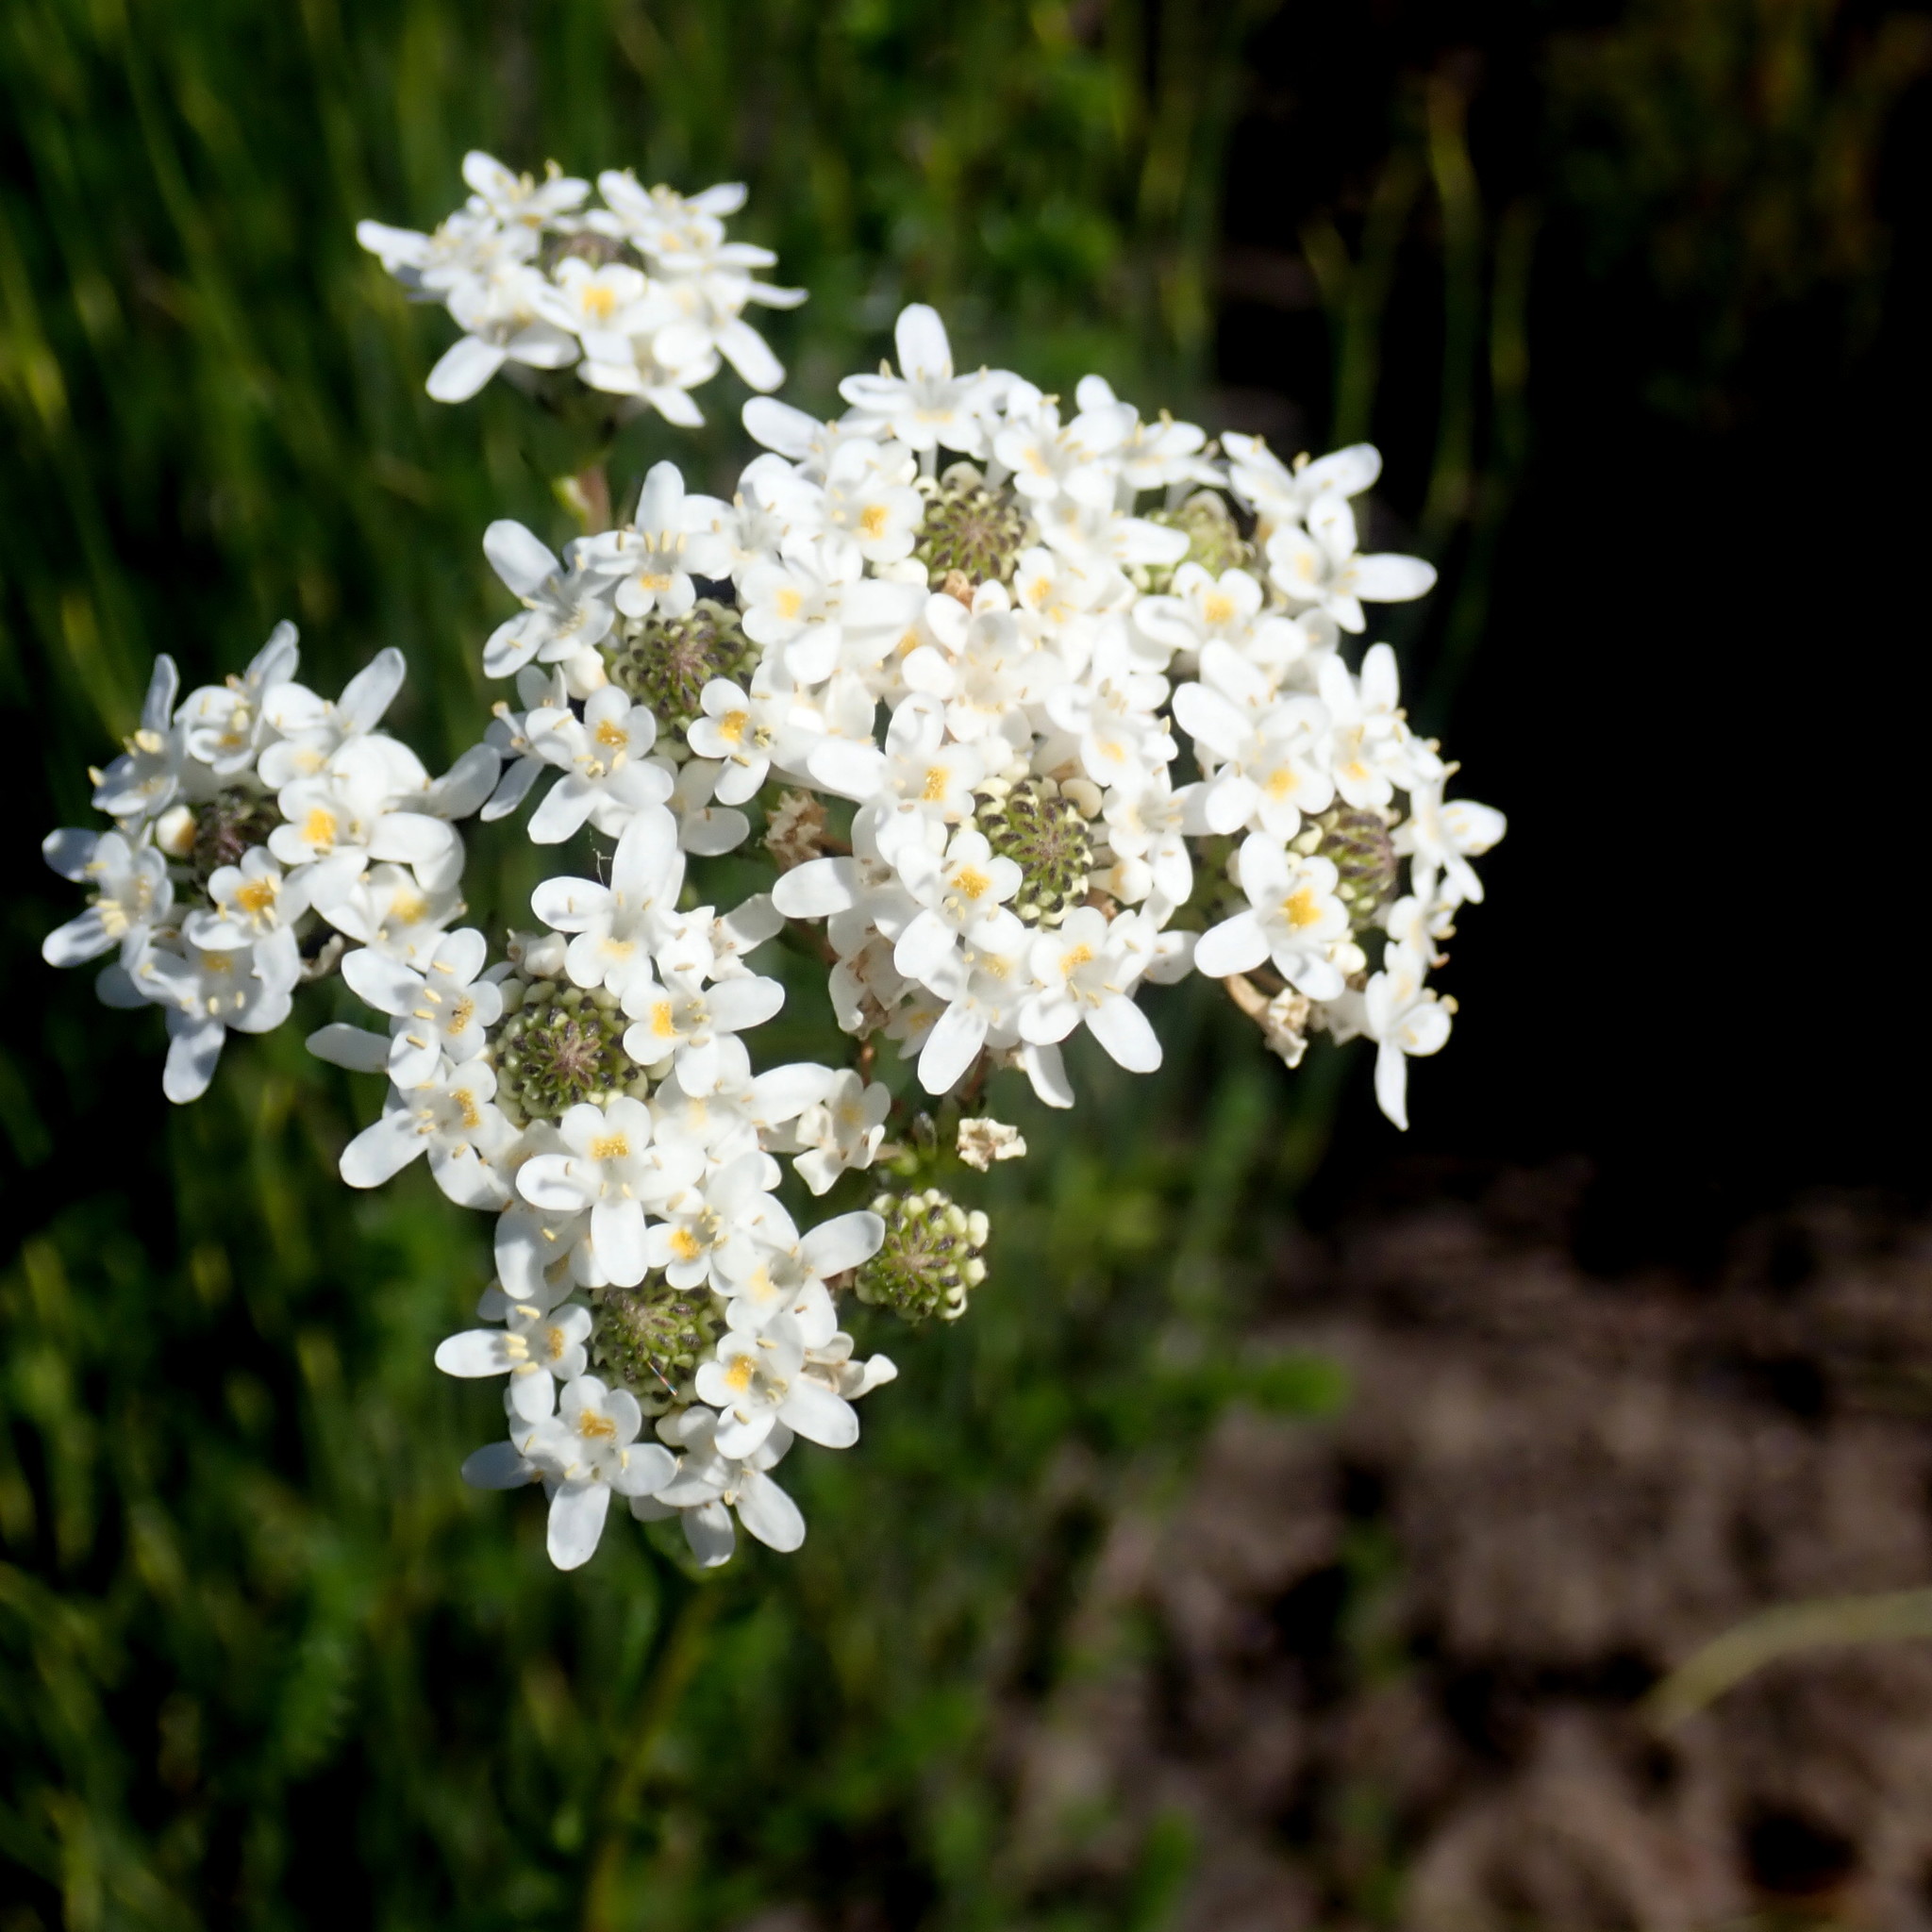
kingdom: Plantae
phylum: Tracheophyta
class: Magnoliopsida
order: Lamiales
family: Scrophulariaceae
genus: Pseudoselago
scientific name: Pseudoselago outeniquensis
